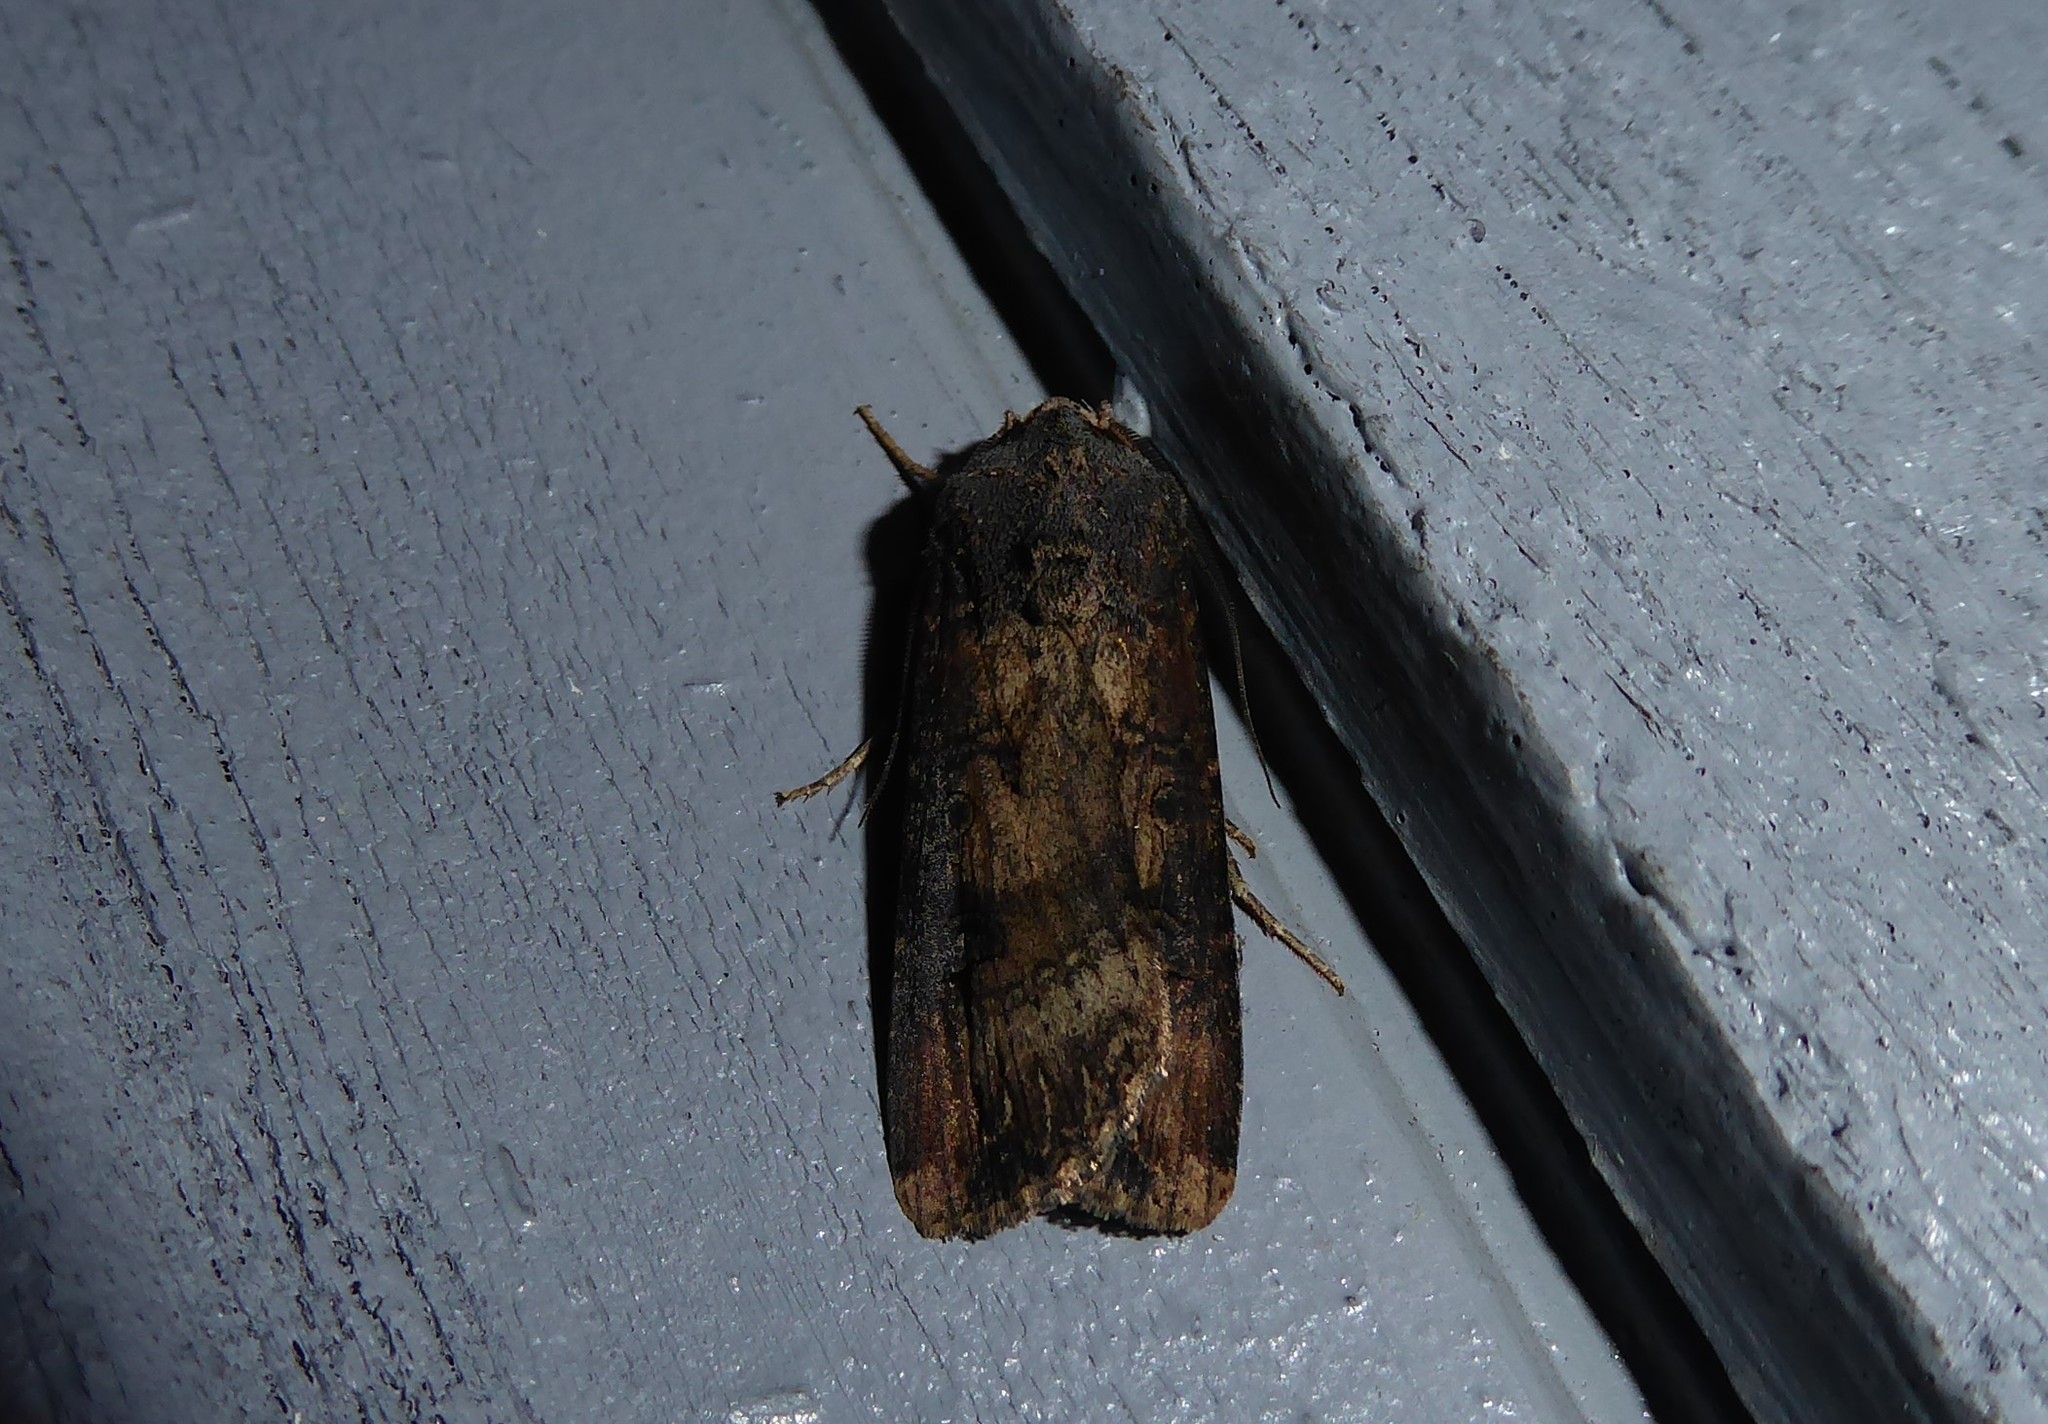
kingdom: Animalia
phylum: Arthropoda
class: Insecta
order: Lepidoptera
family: Noctuidae
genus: Agrotis
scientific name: Agrotis ipsilon
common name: Dark sword-grass
